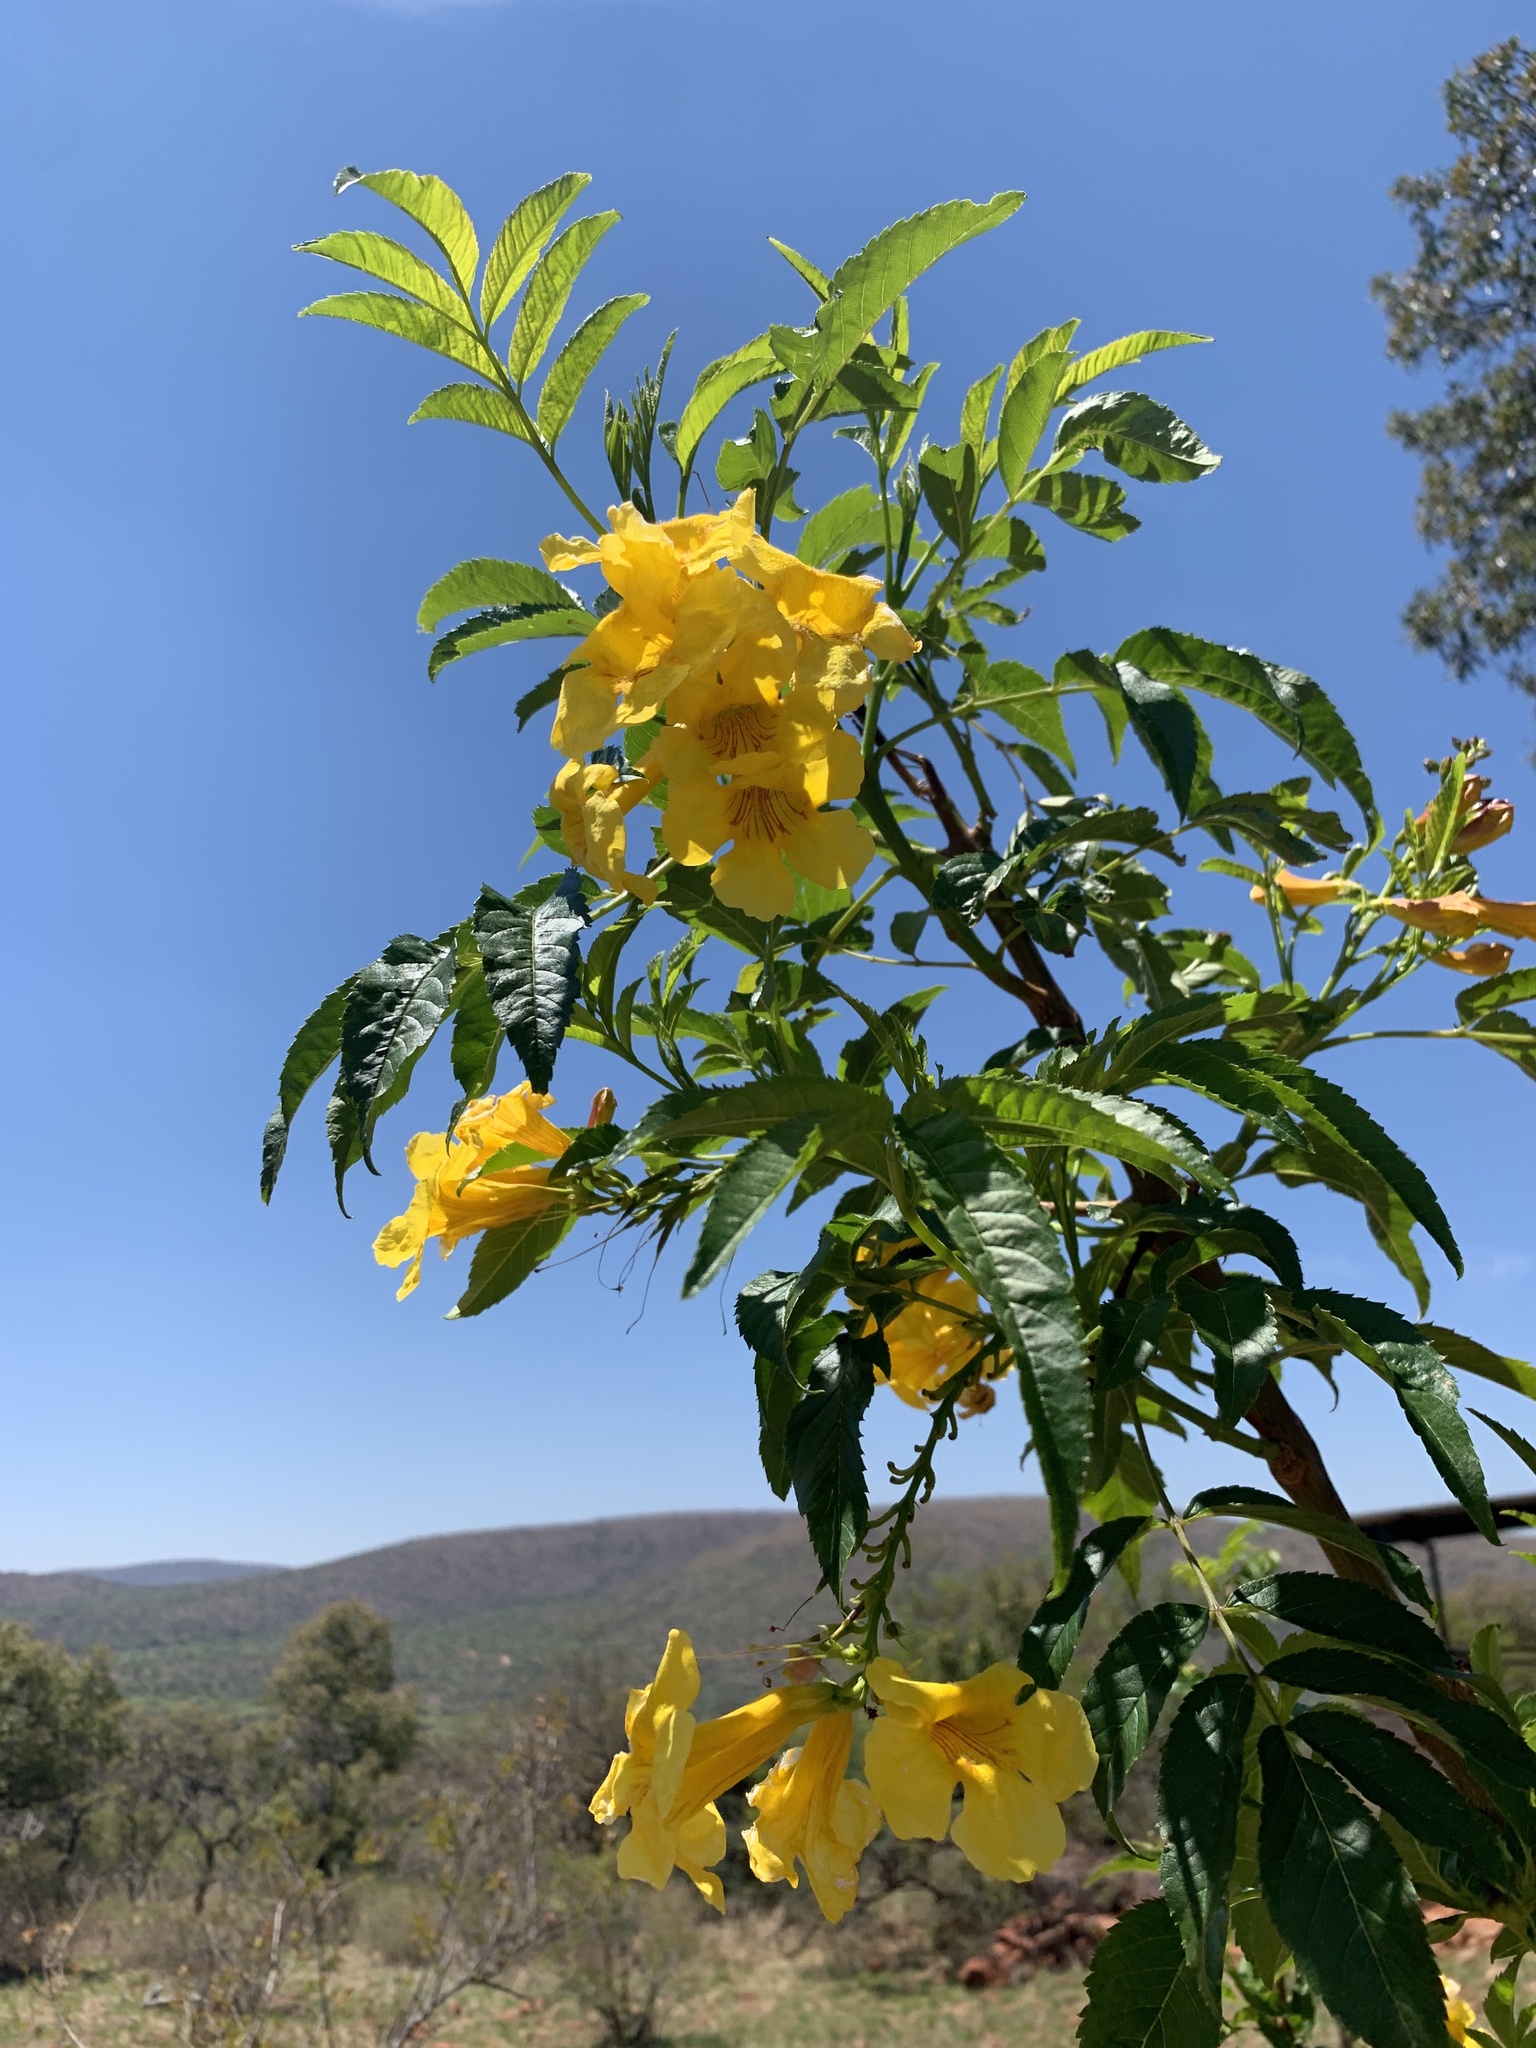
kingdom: Plantae
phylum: Tracheophyta
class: Magnoliopsida
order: Lamiales
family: Bignoniaceae
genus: Tecoma
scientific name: Tecoma stans
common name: Yellow trumpetbush
